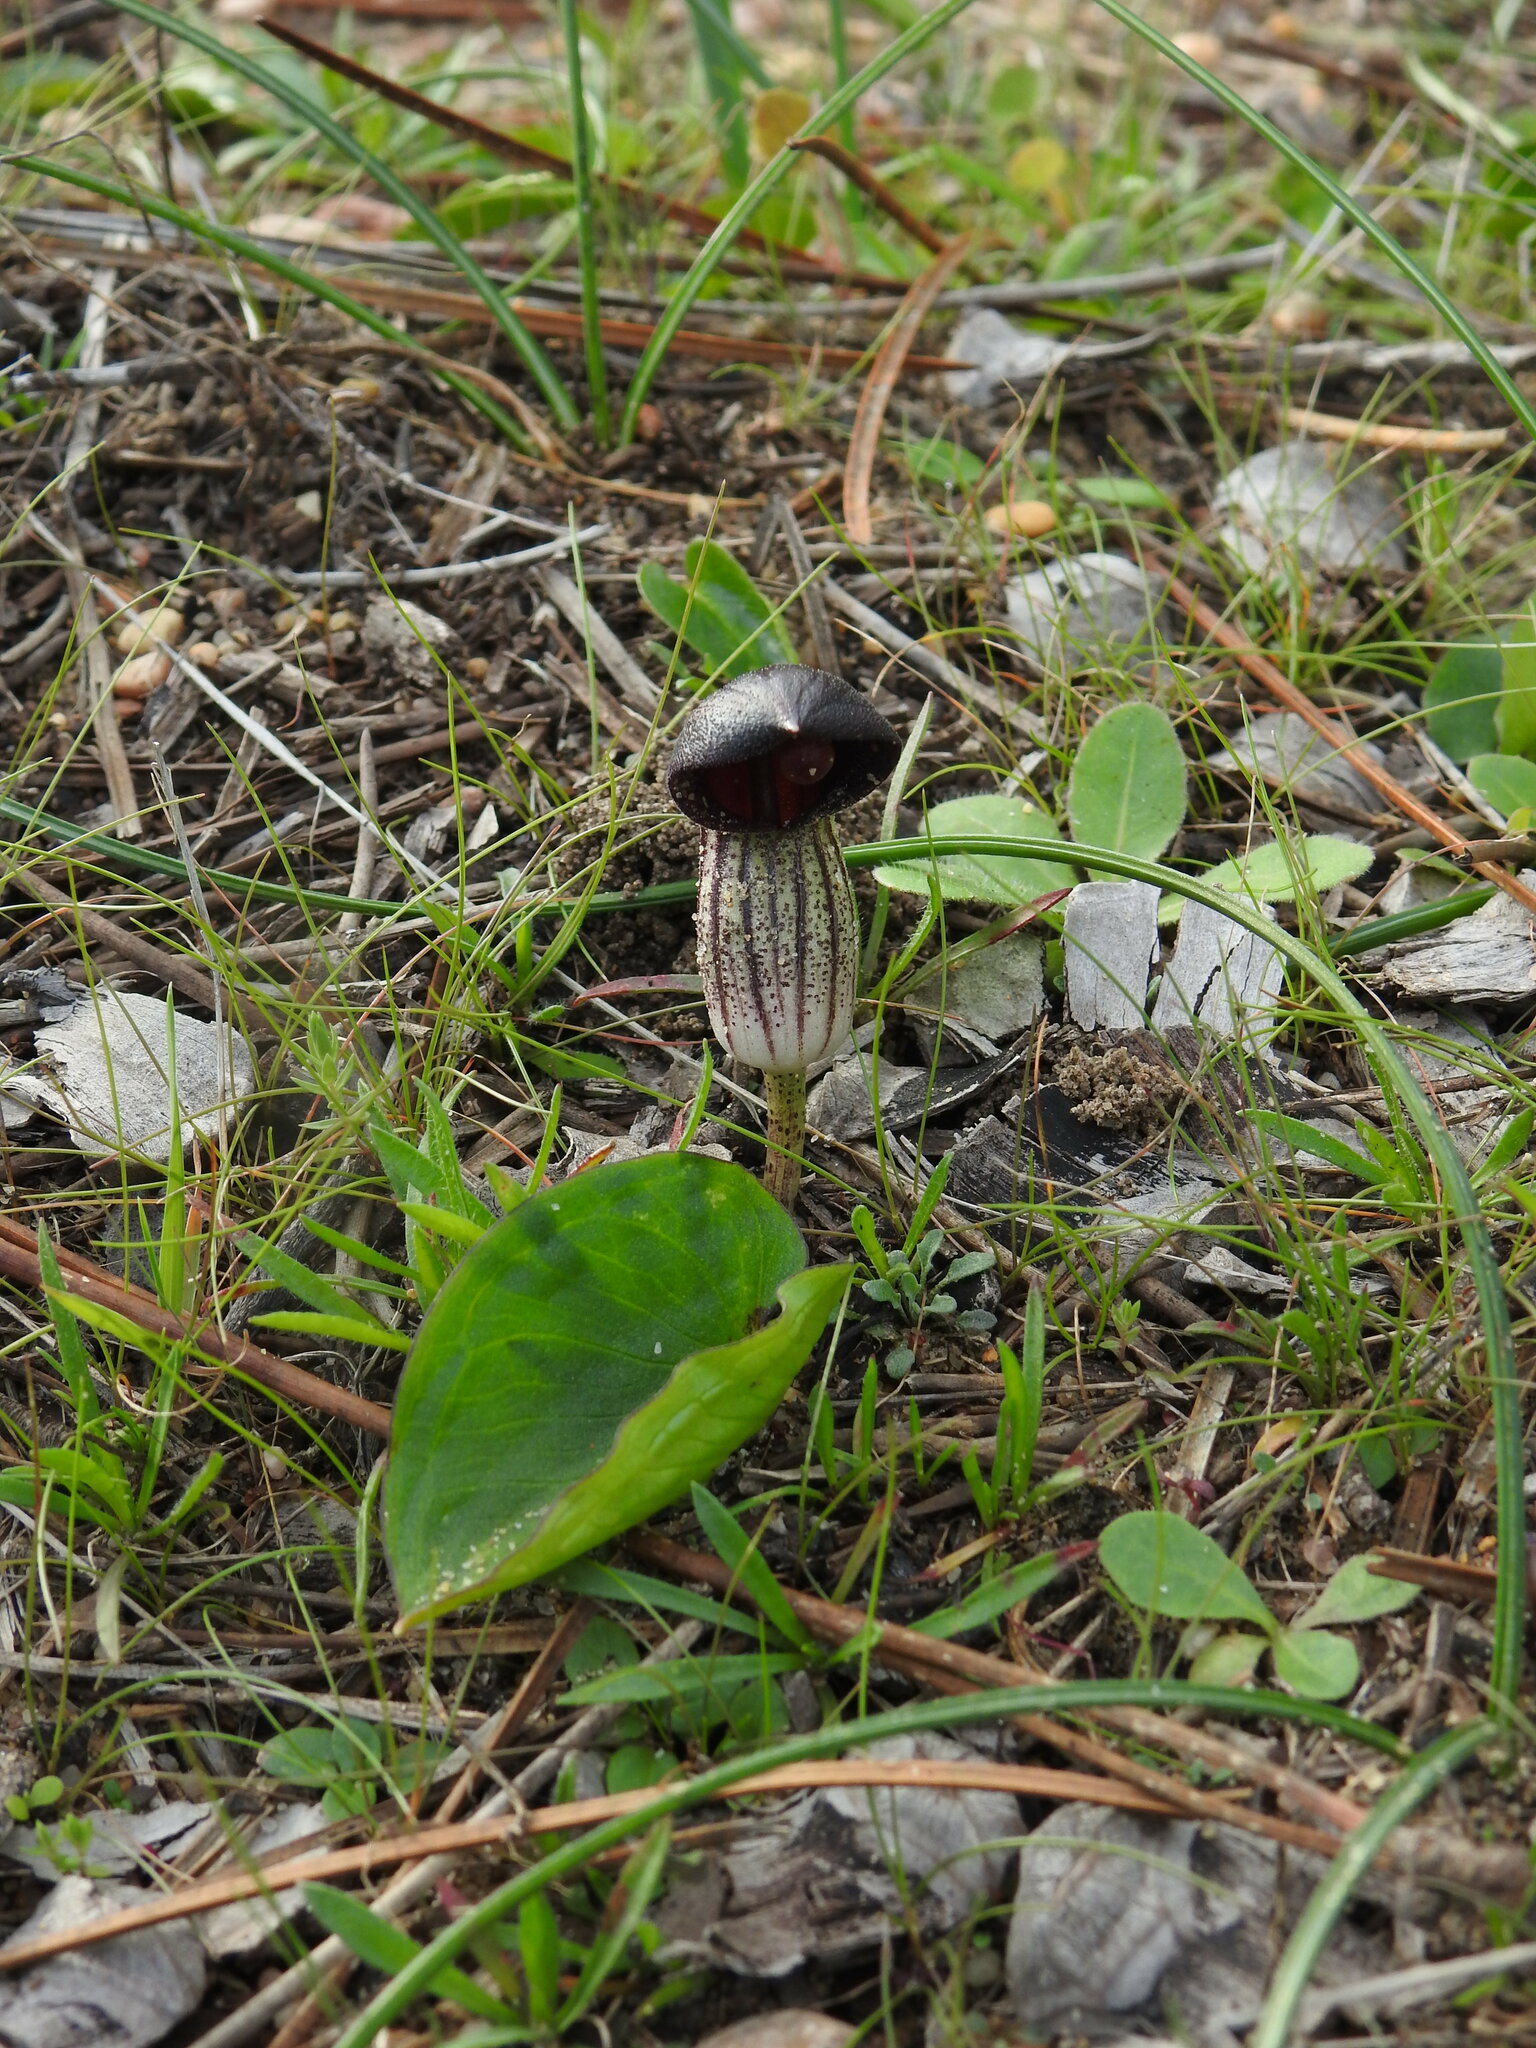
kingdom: Plantae
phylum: Tracheophyta
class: Liliopsida
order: Alismatales
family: Araceae
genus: Arisarum
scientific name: Arisarum simorrhinum
